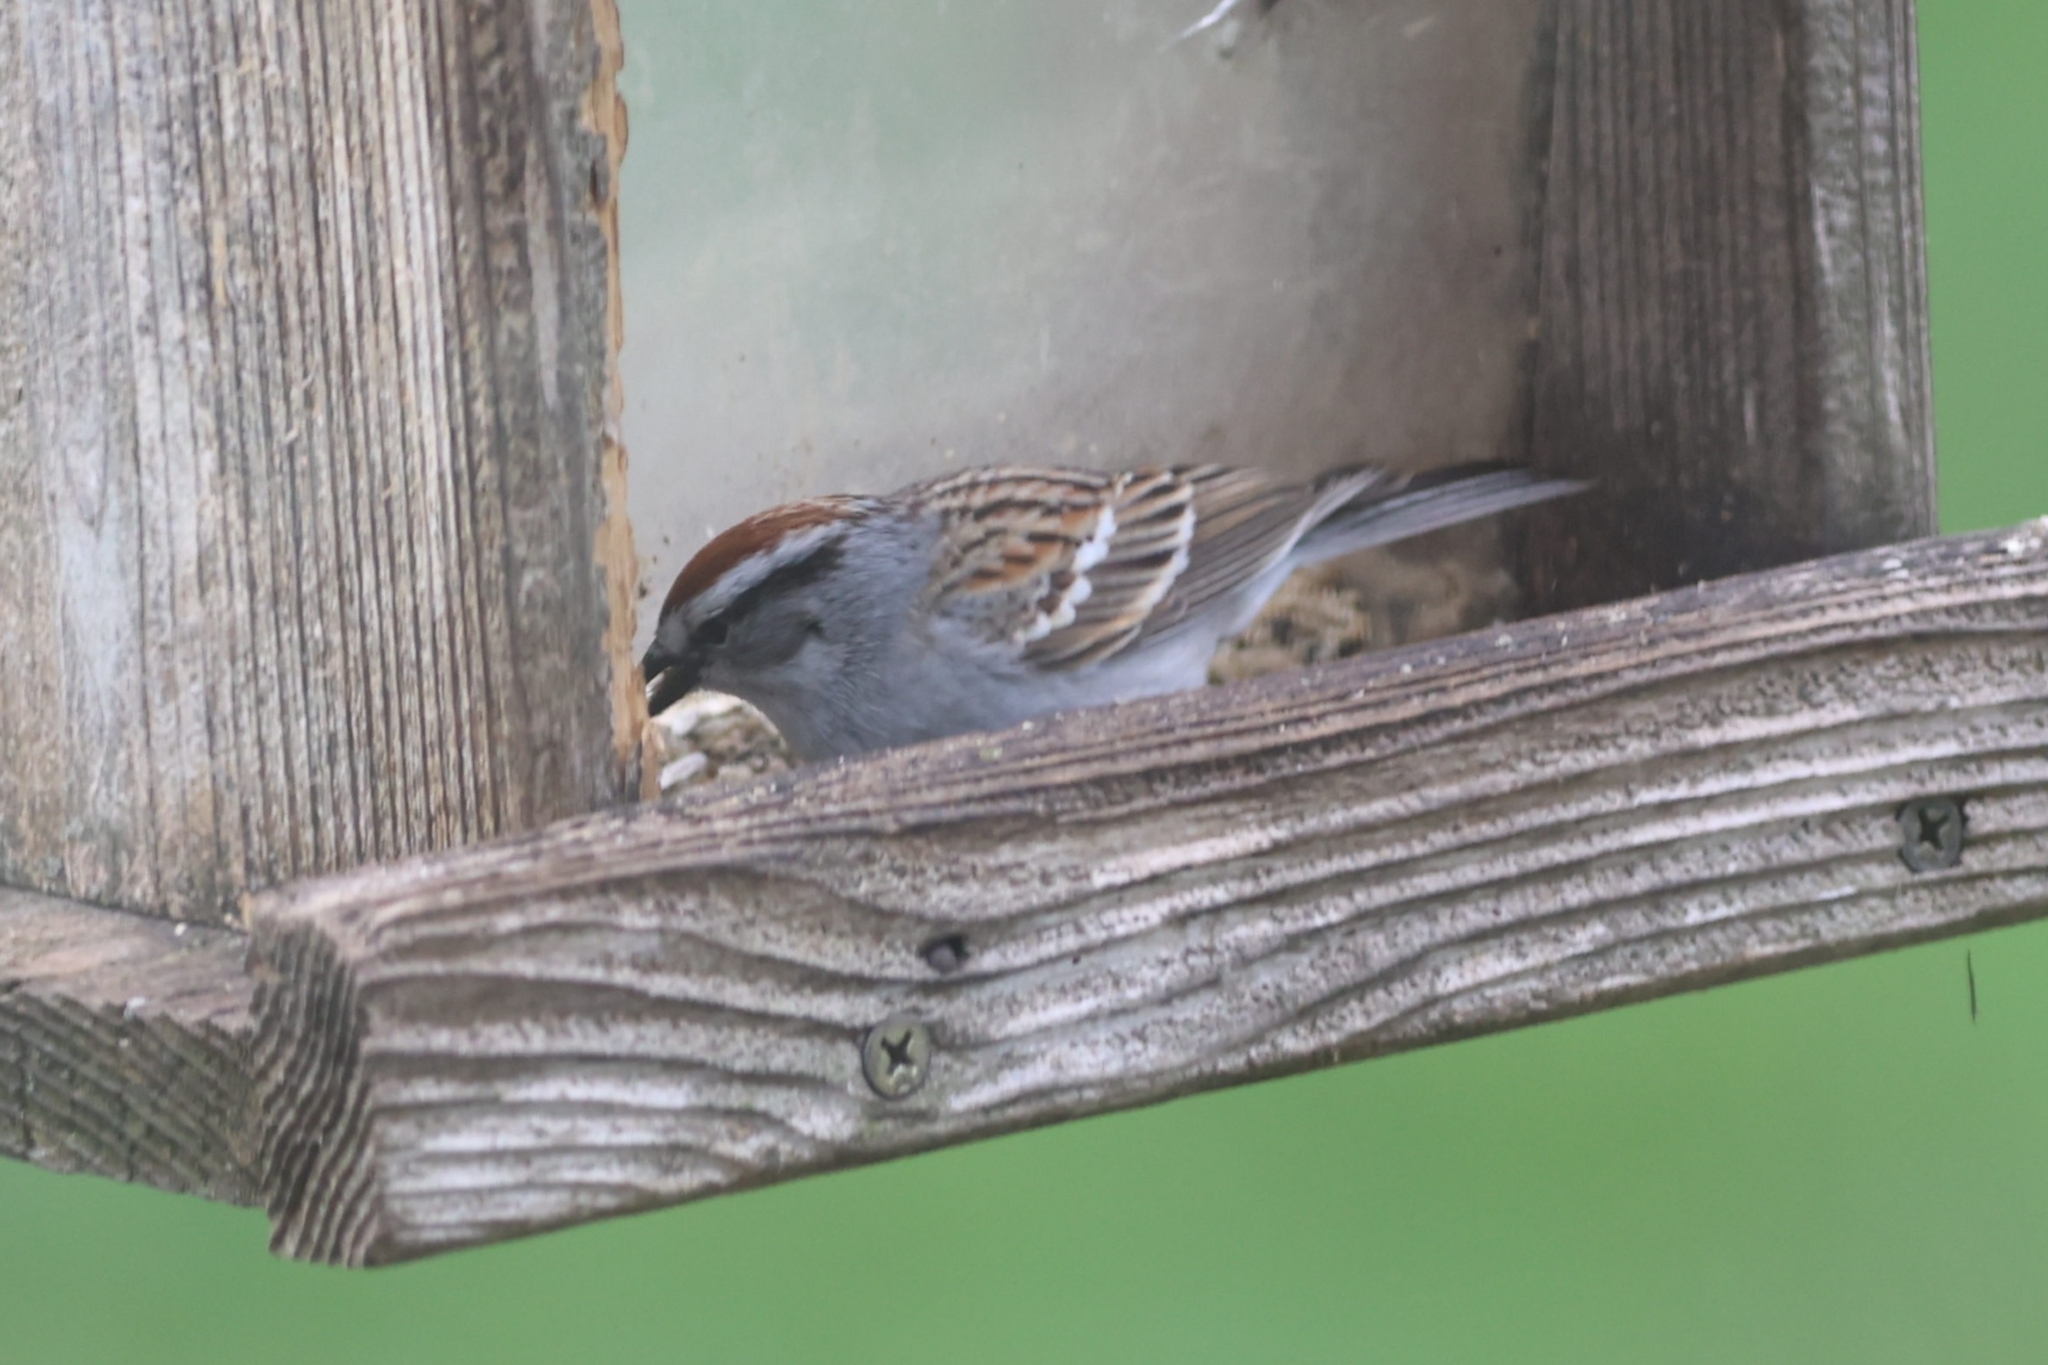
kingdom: Animalia
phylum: Chordata
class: Aves
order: Passeriformes
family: Passerellidae
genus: Spizella
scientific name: Spizella passerina
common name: Chipping sparrow
